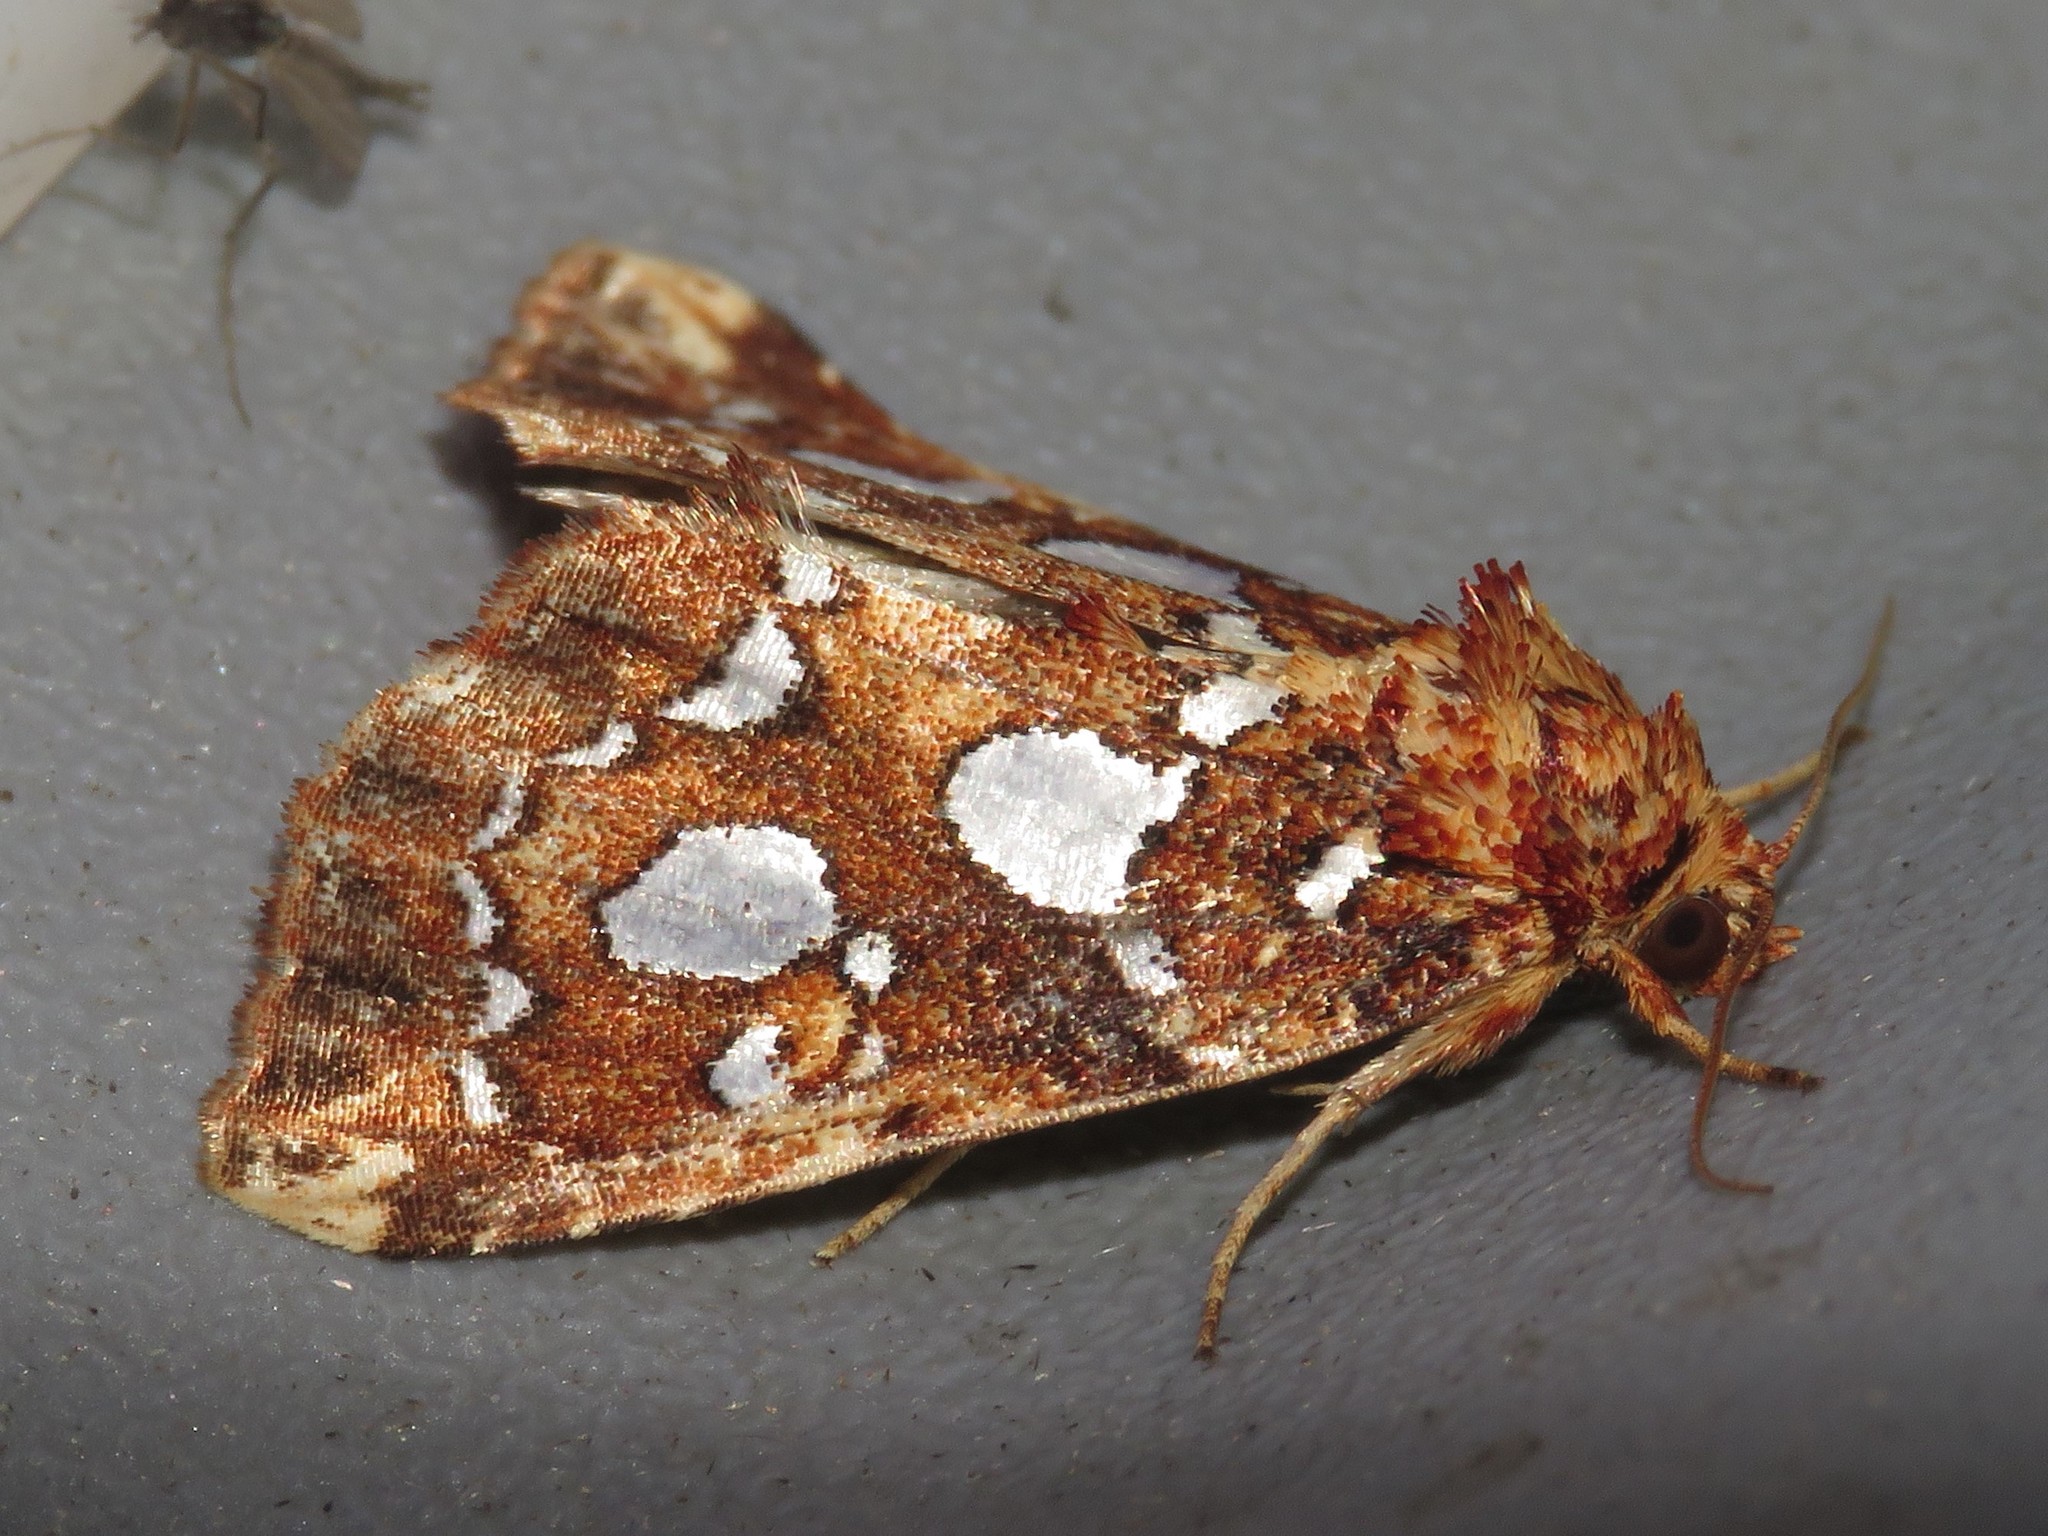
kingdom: Animalia
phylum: Arthropoda
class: Insecta
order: Lepidoptera
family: Noctuidae
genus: Callopistria
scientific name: Callopistria cordata
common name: Silver-spotted fern moth
